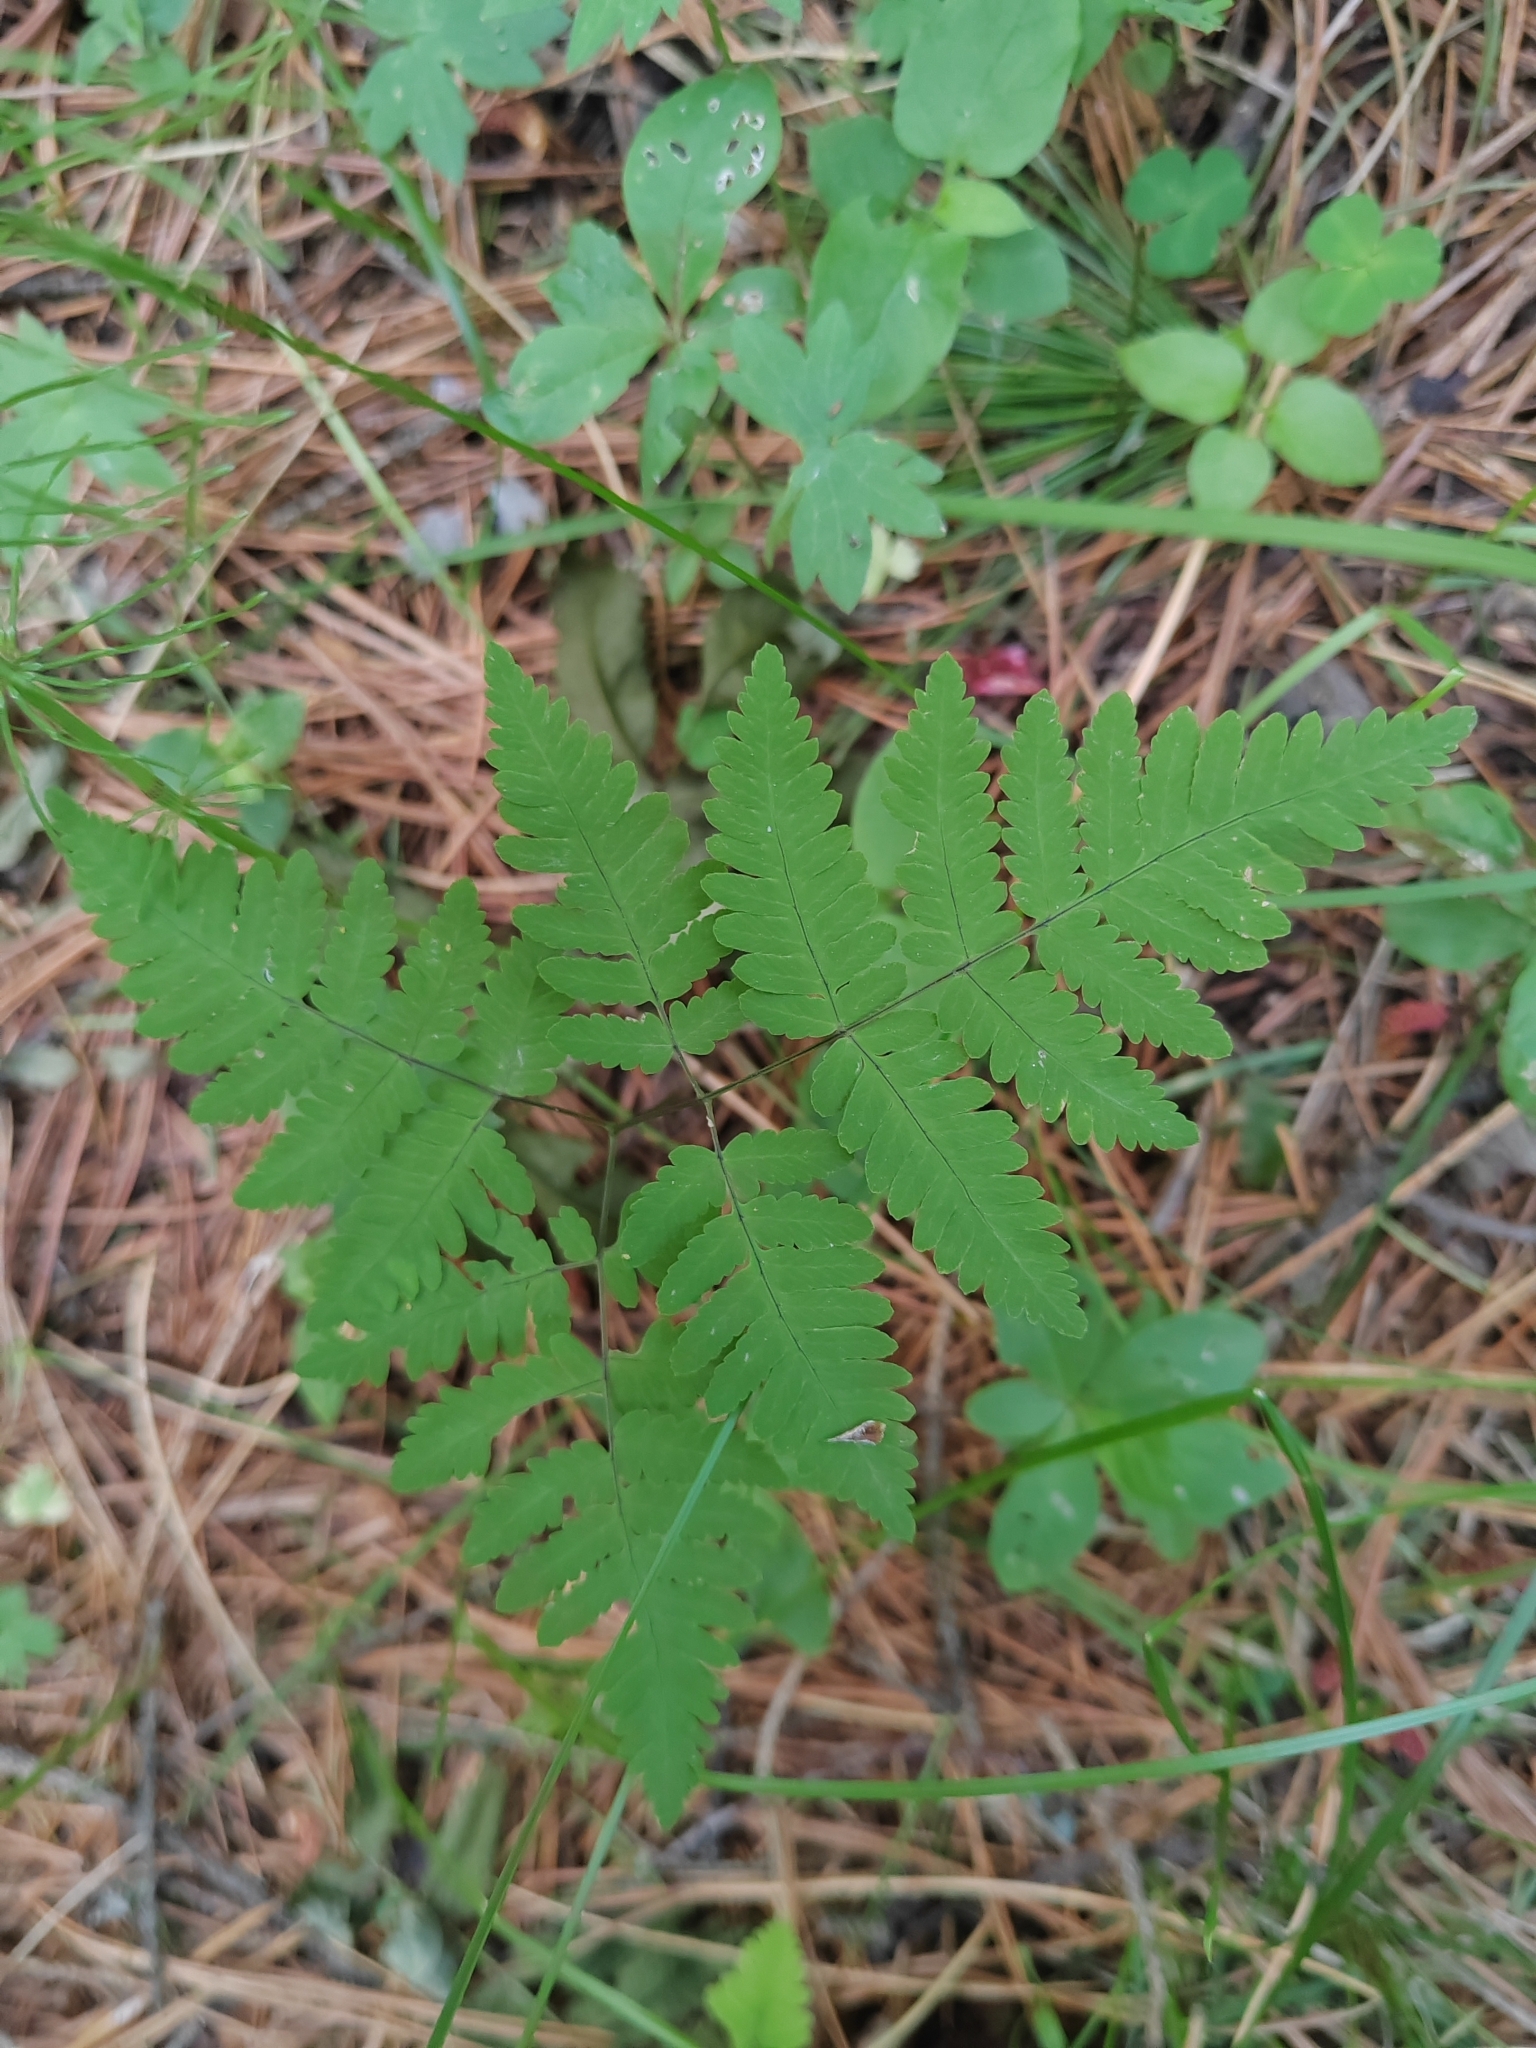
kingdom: Plantae
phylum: Tracheophyta
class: Polypodiopsida
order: Polypodiales
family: Cystopteridaceae
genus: Gymnocarpium
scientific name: Gymnocarpium dryopteris
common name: Oak fern
